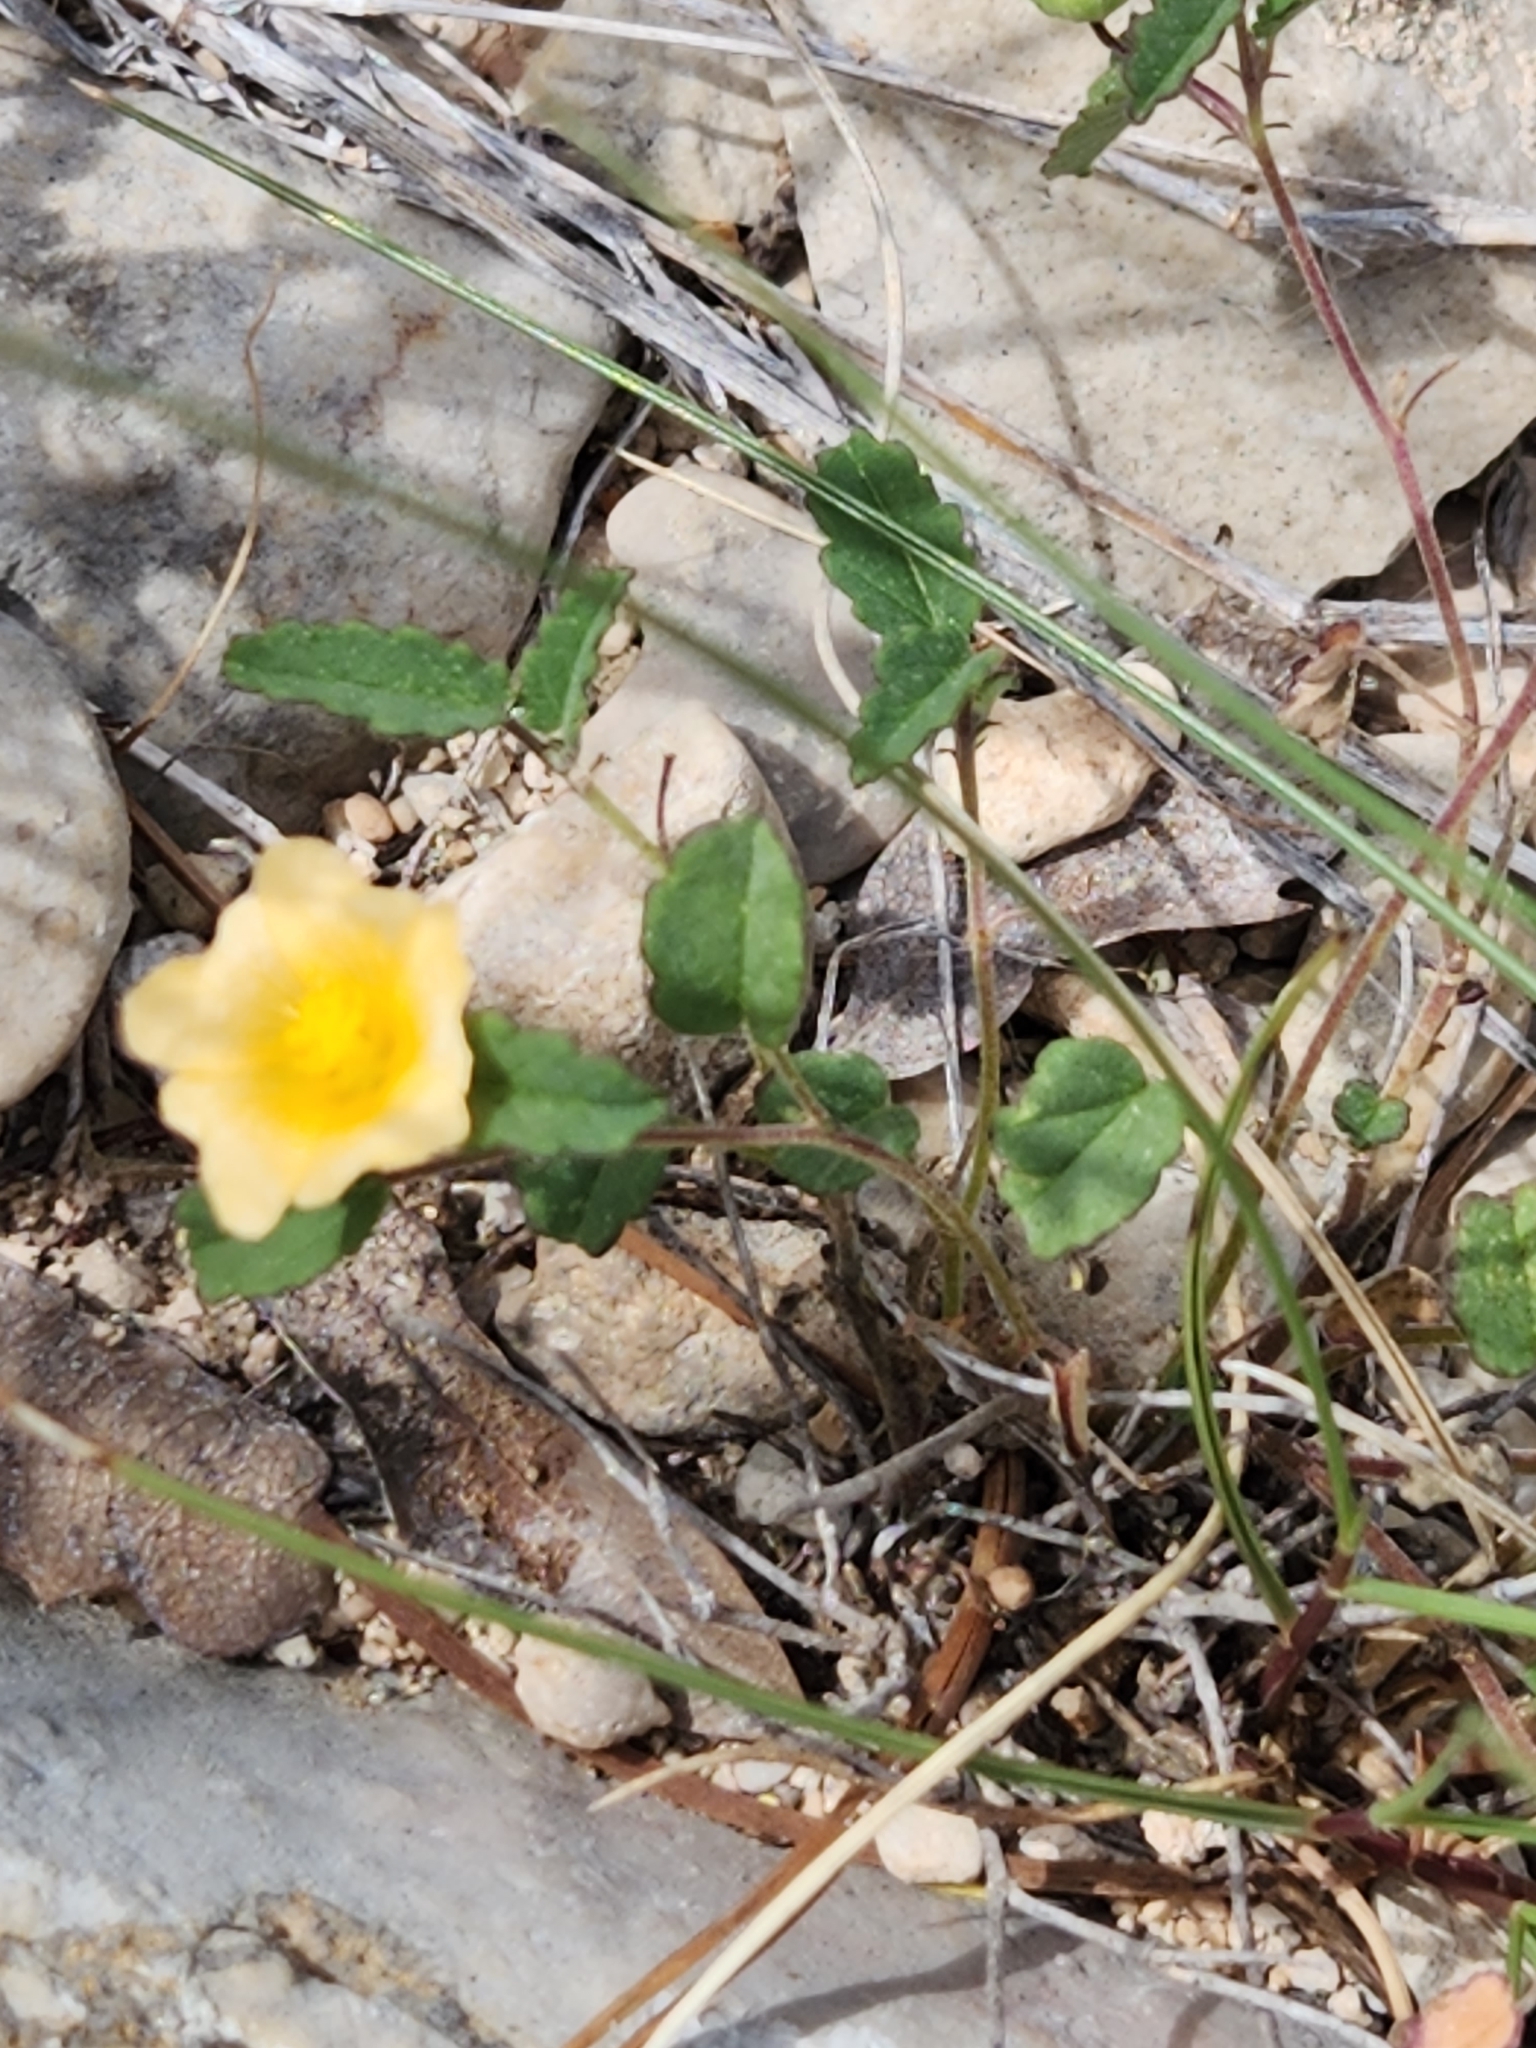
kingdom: Plantae
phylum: Tracheophyta
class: Magnoliopsida
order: Malvales
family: Malvaceae
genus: Sida
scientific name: Sida abutilifolia
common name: Spreading fanpetals
